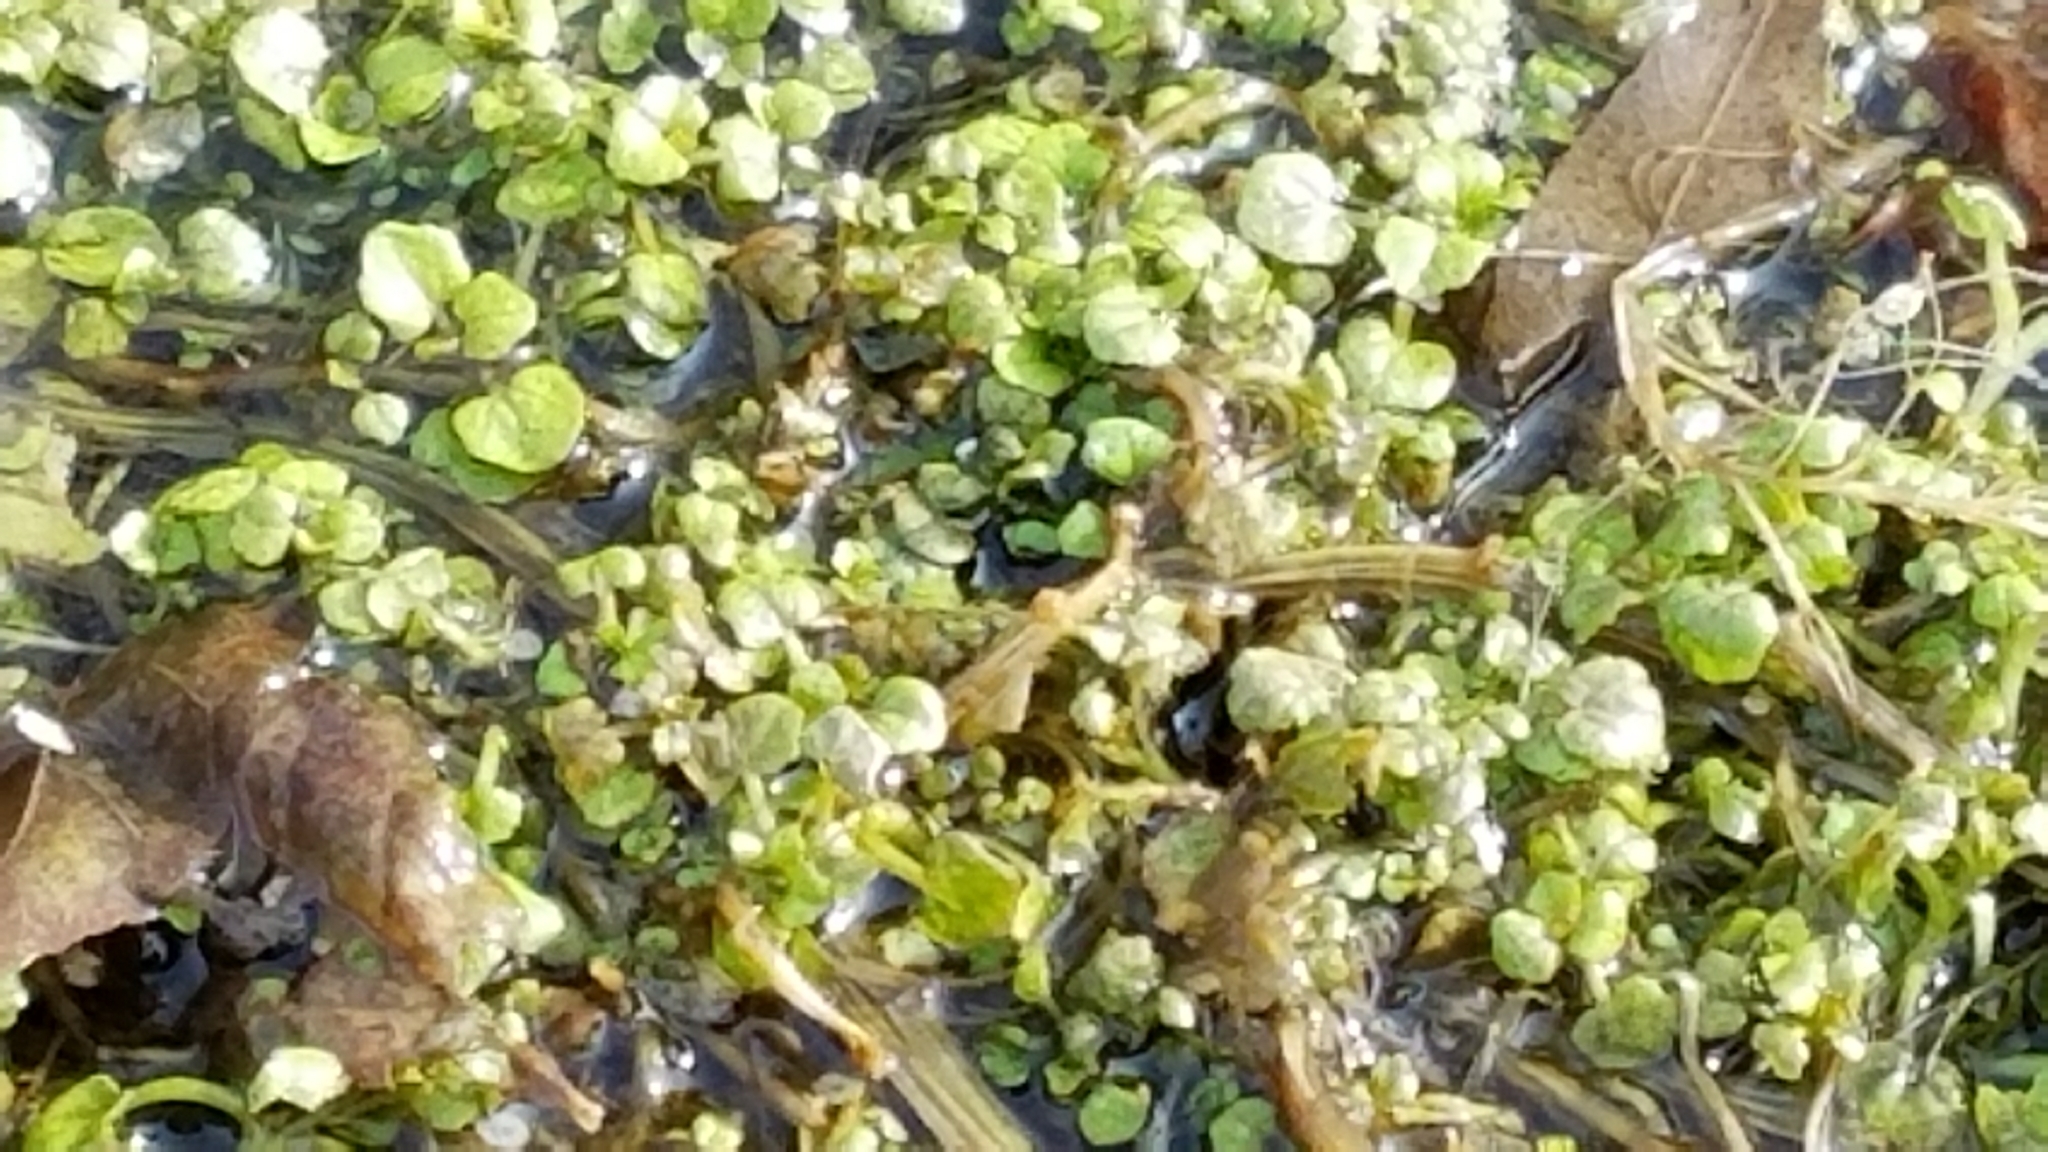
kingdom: Plantae
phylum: Tracheophyta
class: Magnoliopsida
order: Brassicales
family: Brassicaceae
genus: Nasturtium
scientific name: Nasturtium officinale
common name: Watercress
